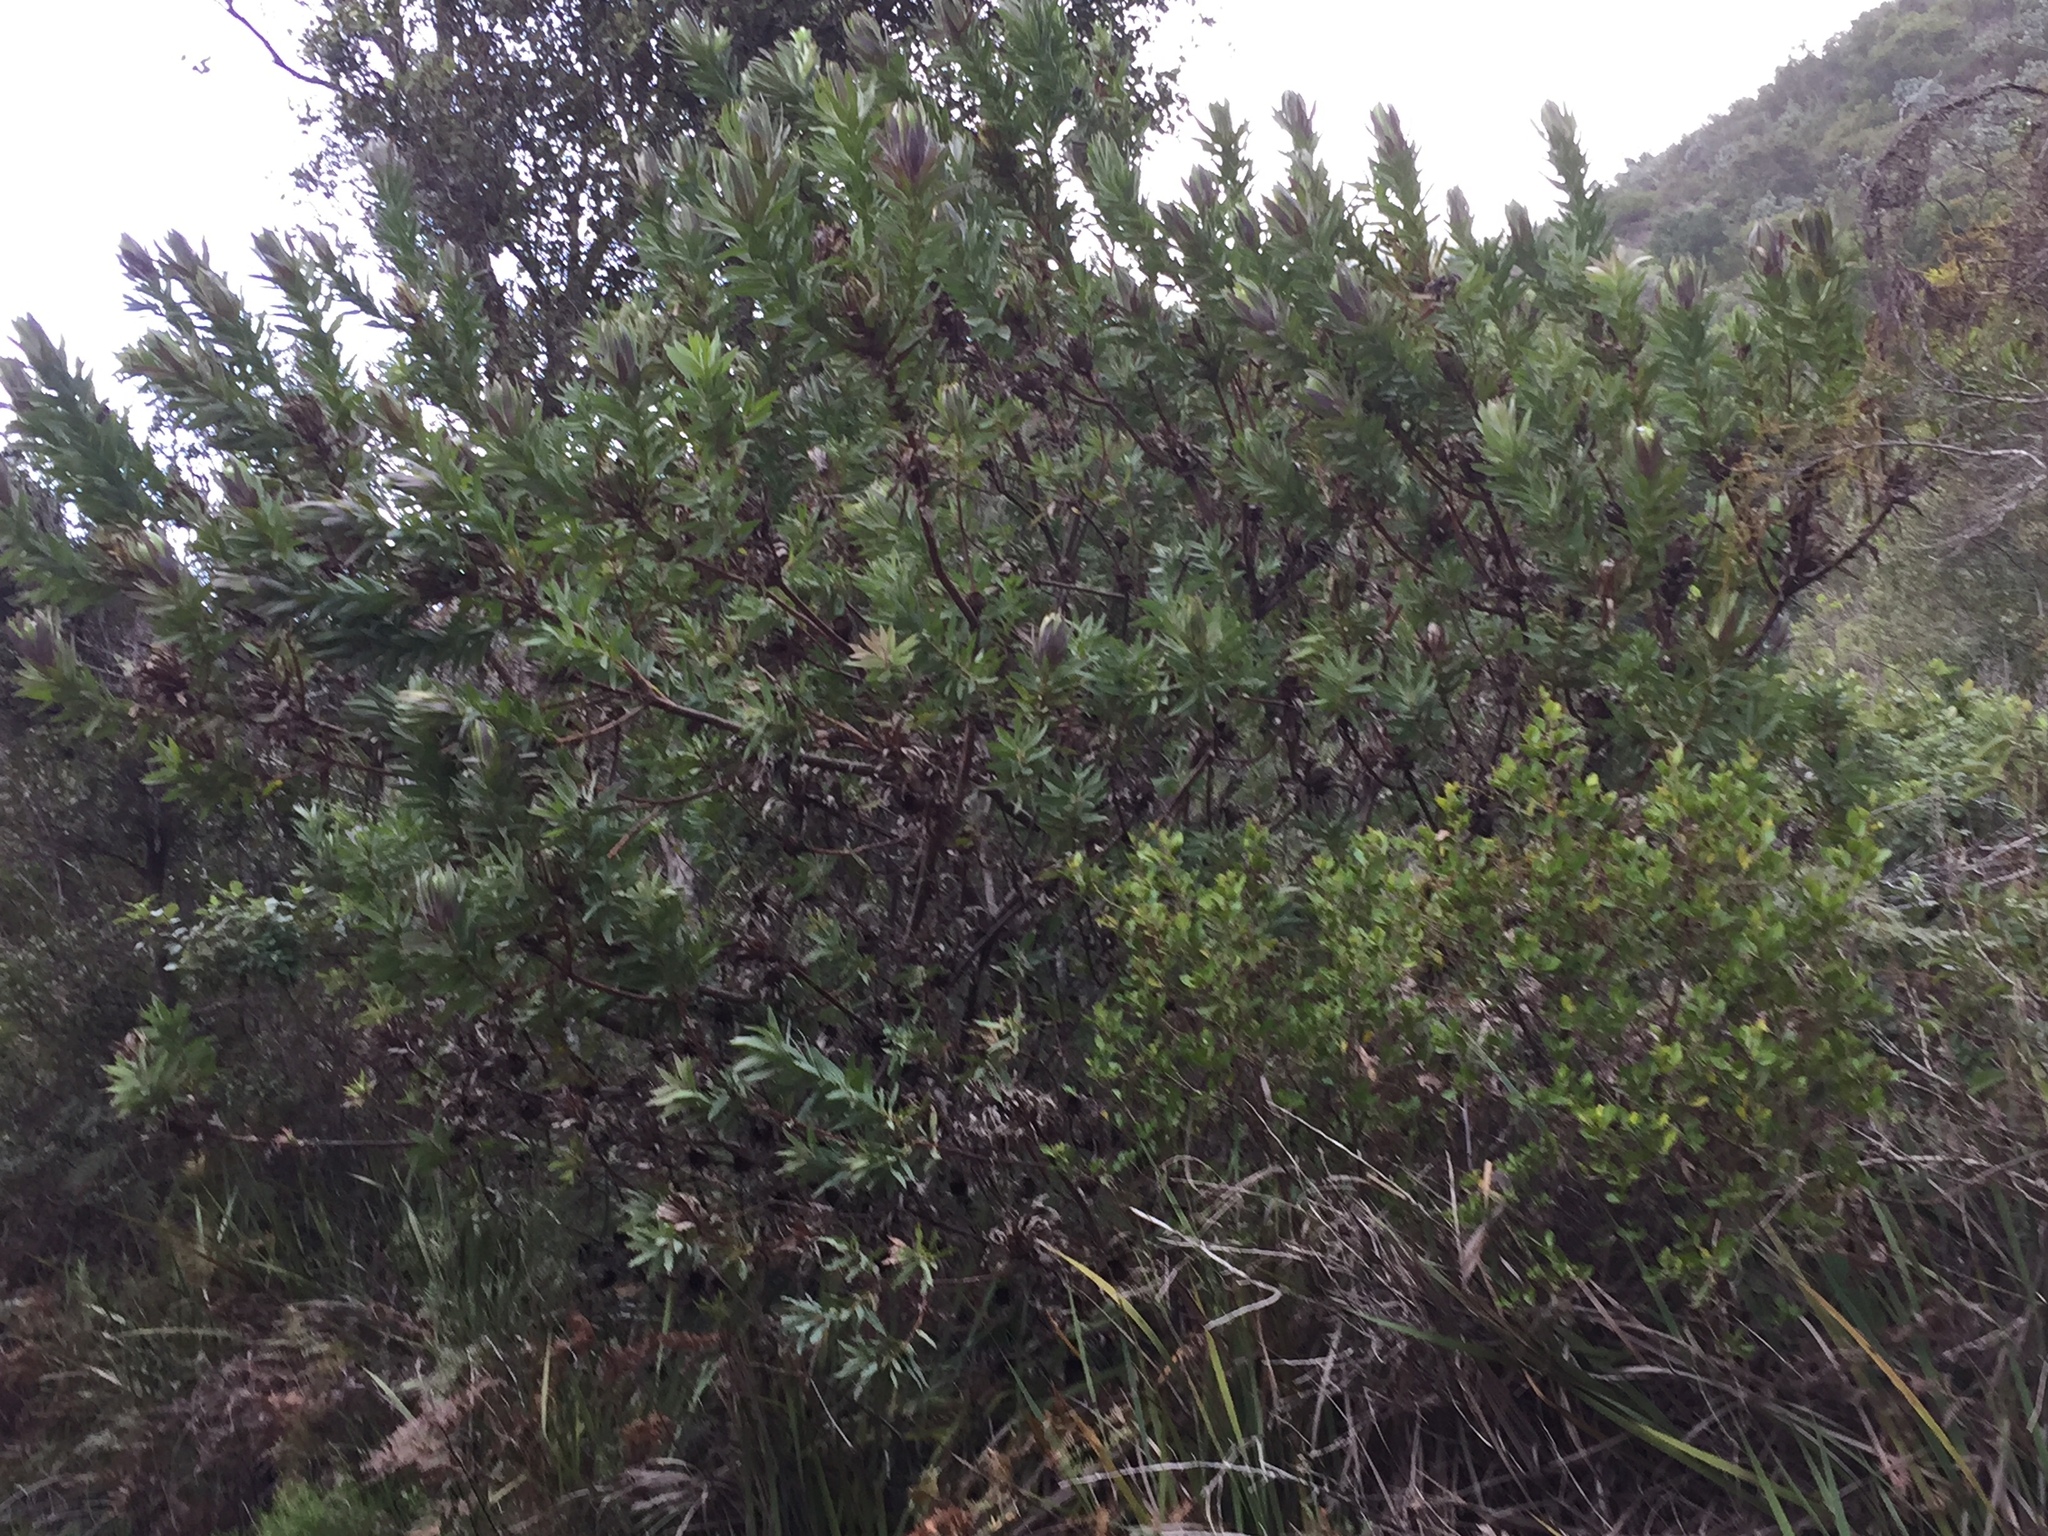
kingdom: Plantae
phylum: Tracheophyta
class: Magnoliopsida
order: Proteales
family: Proteaceae
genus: Protea
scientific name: Protea coronata
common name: Green sugarbush
